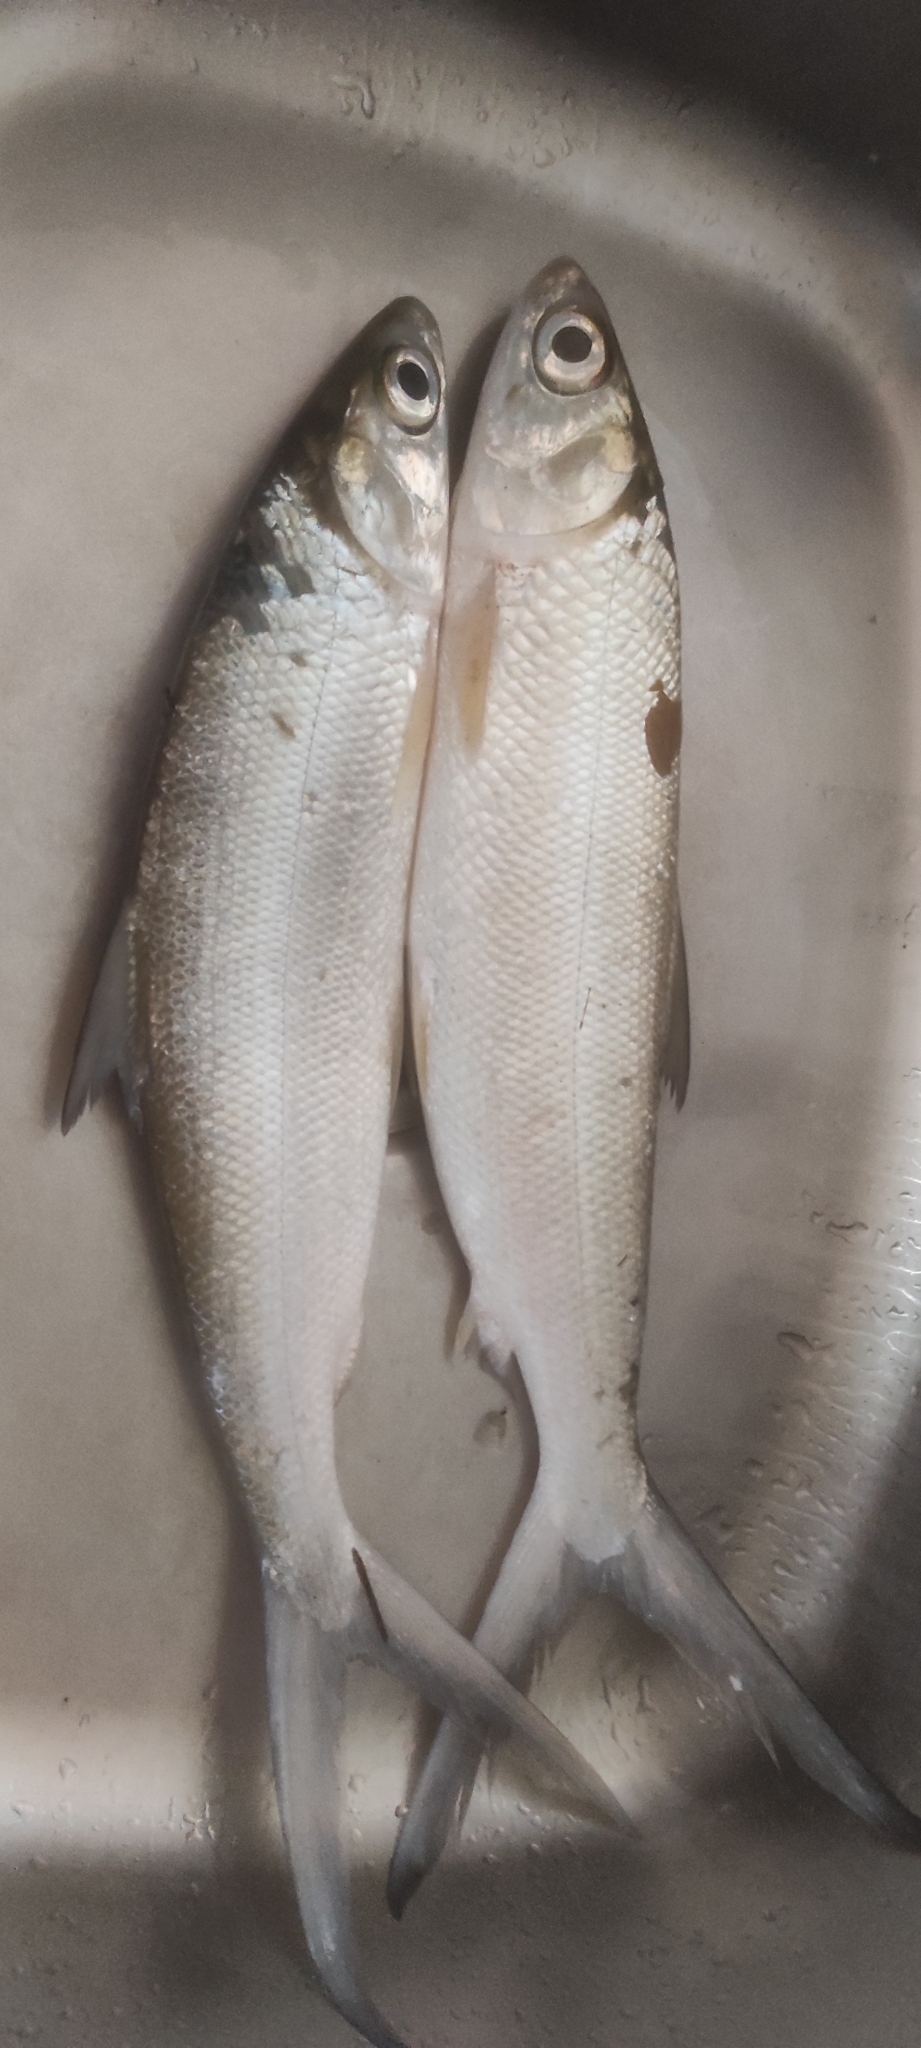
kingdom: Animalia
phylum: Chordata
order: Gonorynchiformes
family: Chanidae
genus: Chanos
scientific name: Chanos chanos
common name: Milkfish
